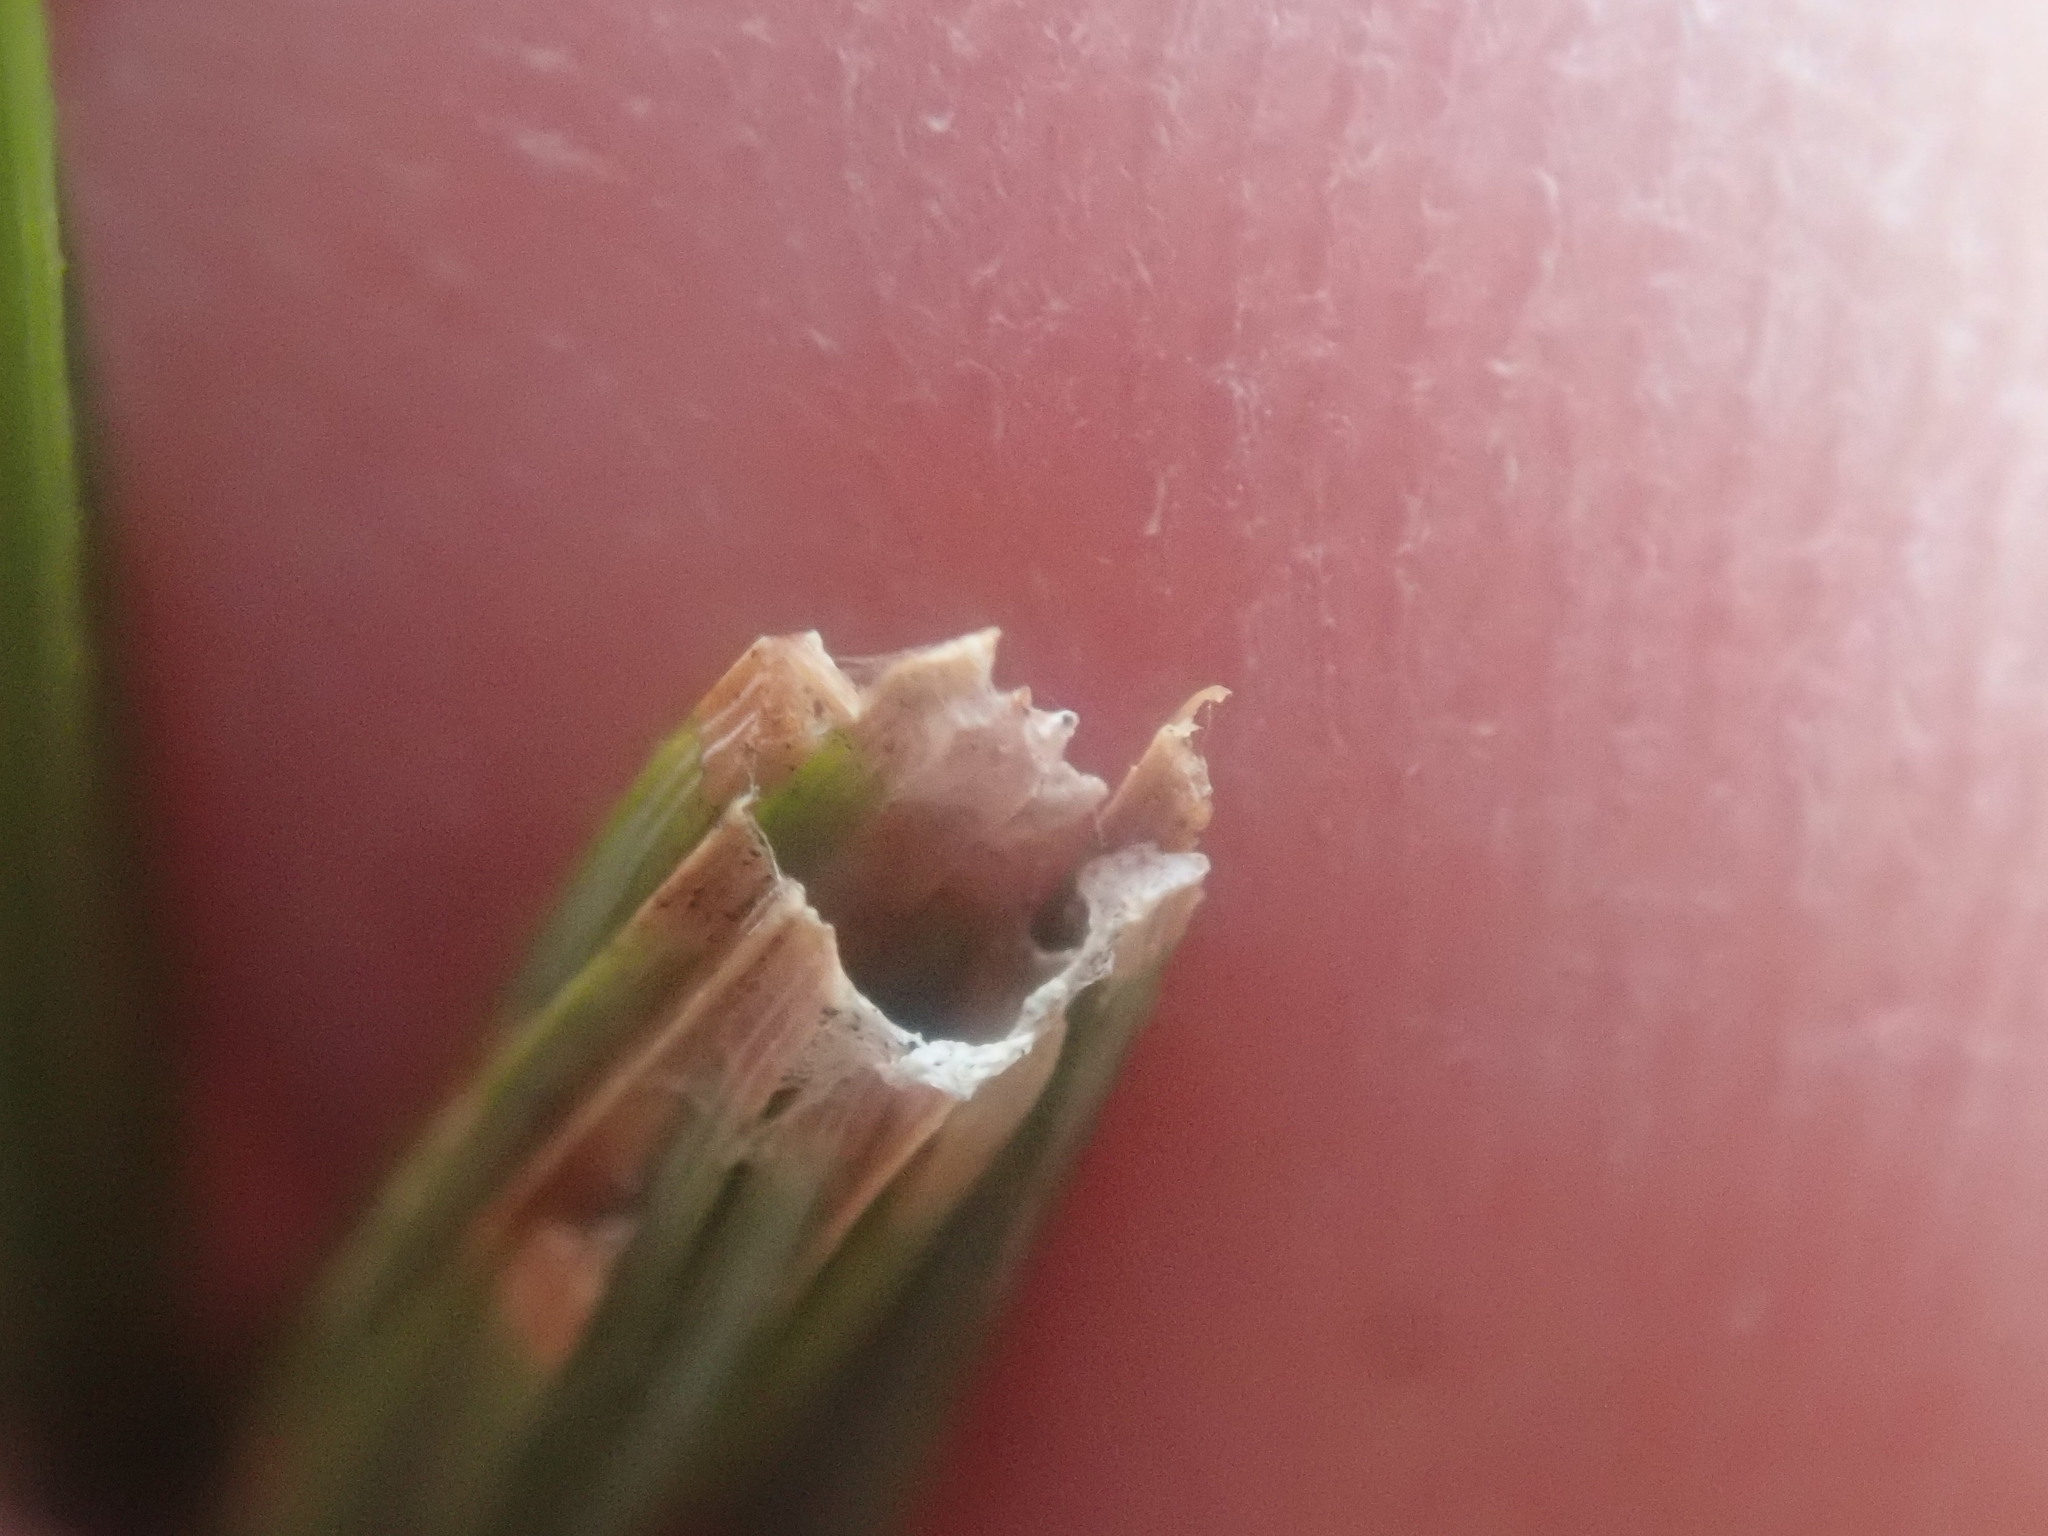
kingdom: Animalia
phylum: Arthropoda
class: Insecta
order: Lepidoptera
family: Tortricidae
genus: Argyrotaenia
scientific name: Argyrotaenia pinatubana
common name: Pine tube moth
